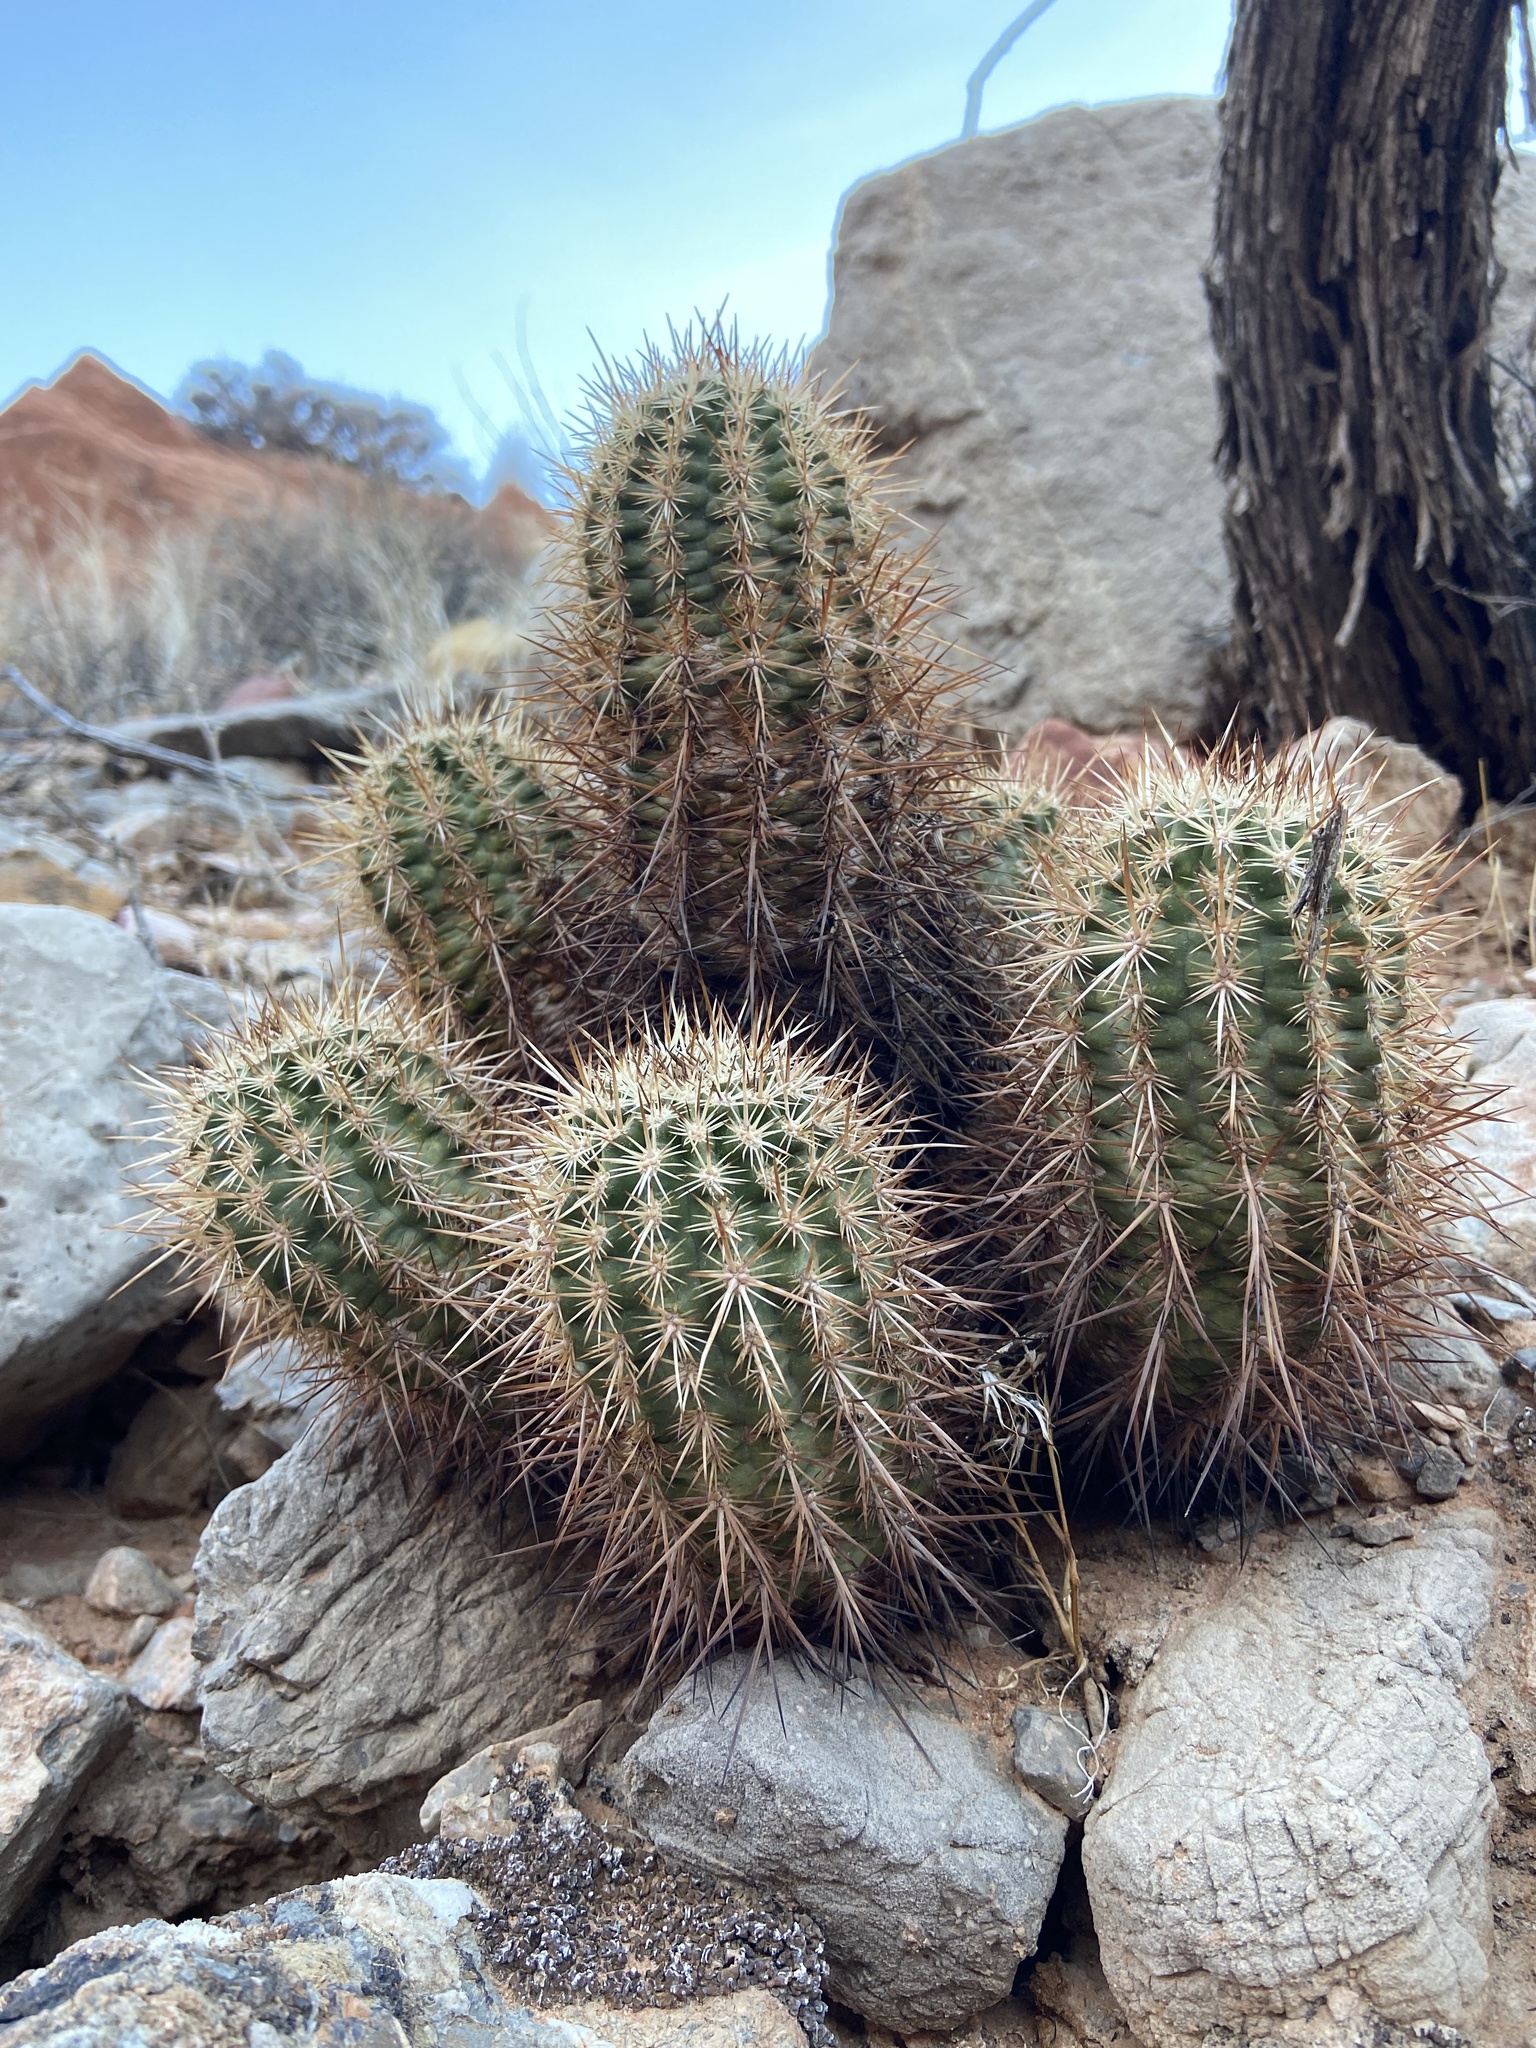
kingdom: Plantae
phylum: Tracheophyta
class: Magnoliopsida
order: Caryophyllales
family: Cactaceae
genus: Echinocereus
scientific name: Echinocereus engelmannii
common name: Engelmann's hedgehog cactus
